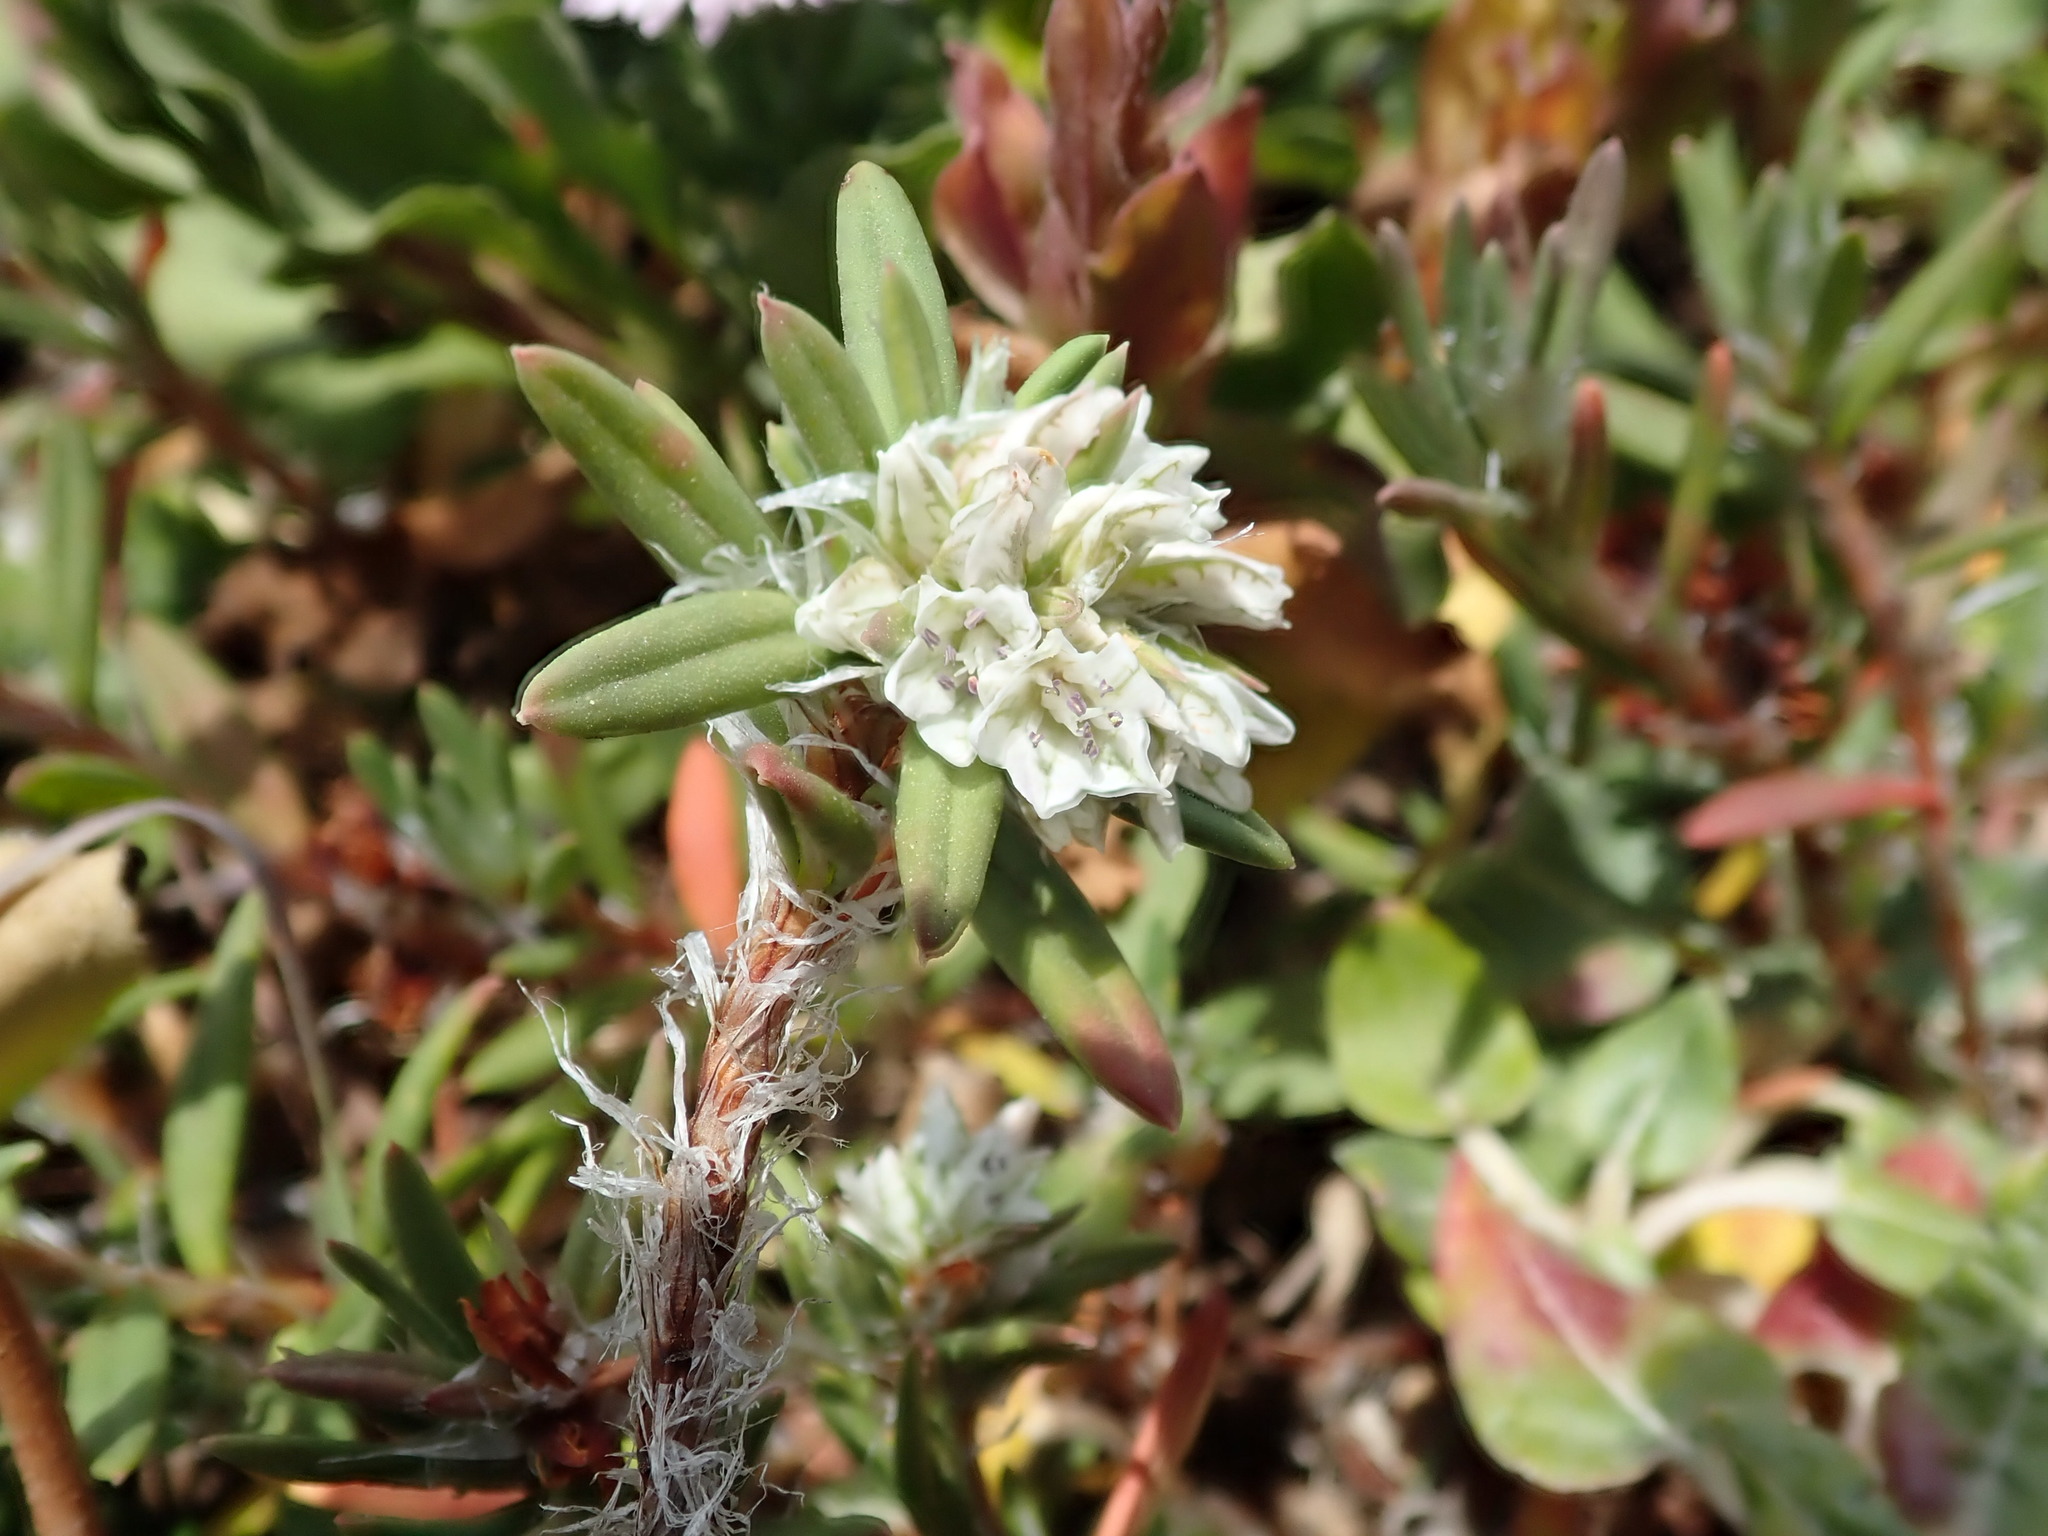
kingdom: Plantae
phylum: Tracheophyta
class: Magnoliopsida
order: Caryophyllales
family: Polygonaceae
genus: Polygonum
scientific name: Polygonum paronychia
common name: Dune knotweed
